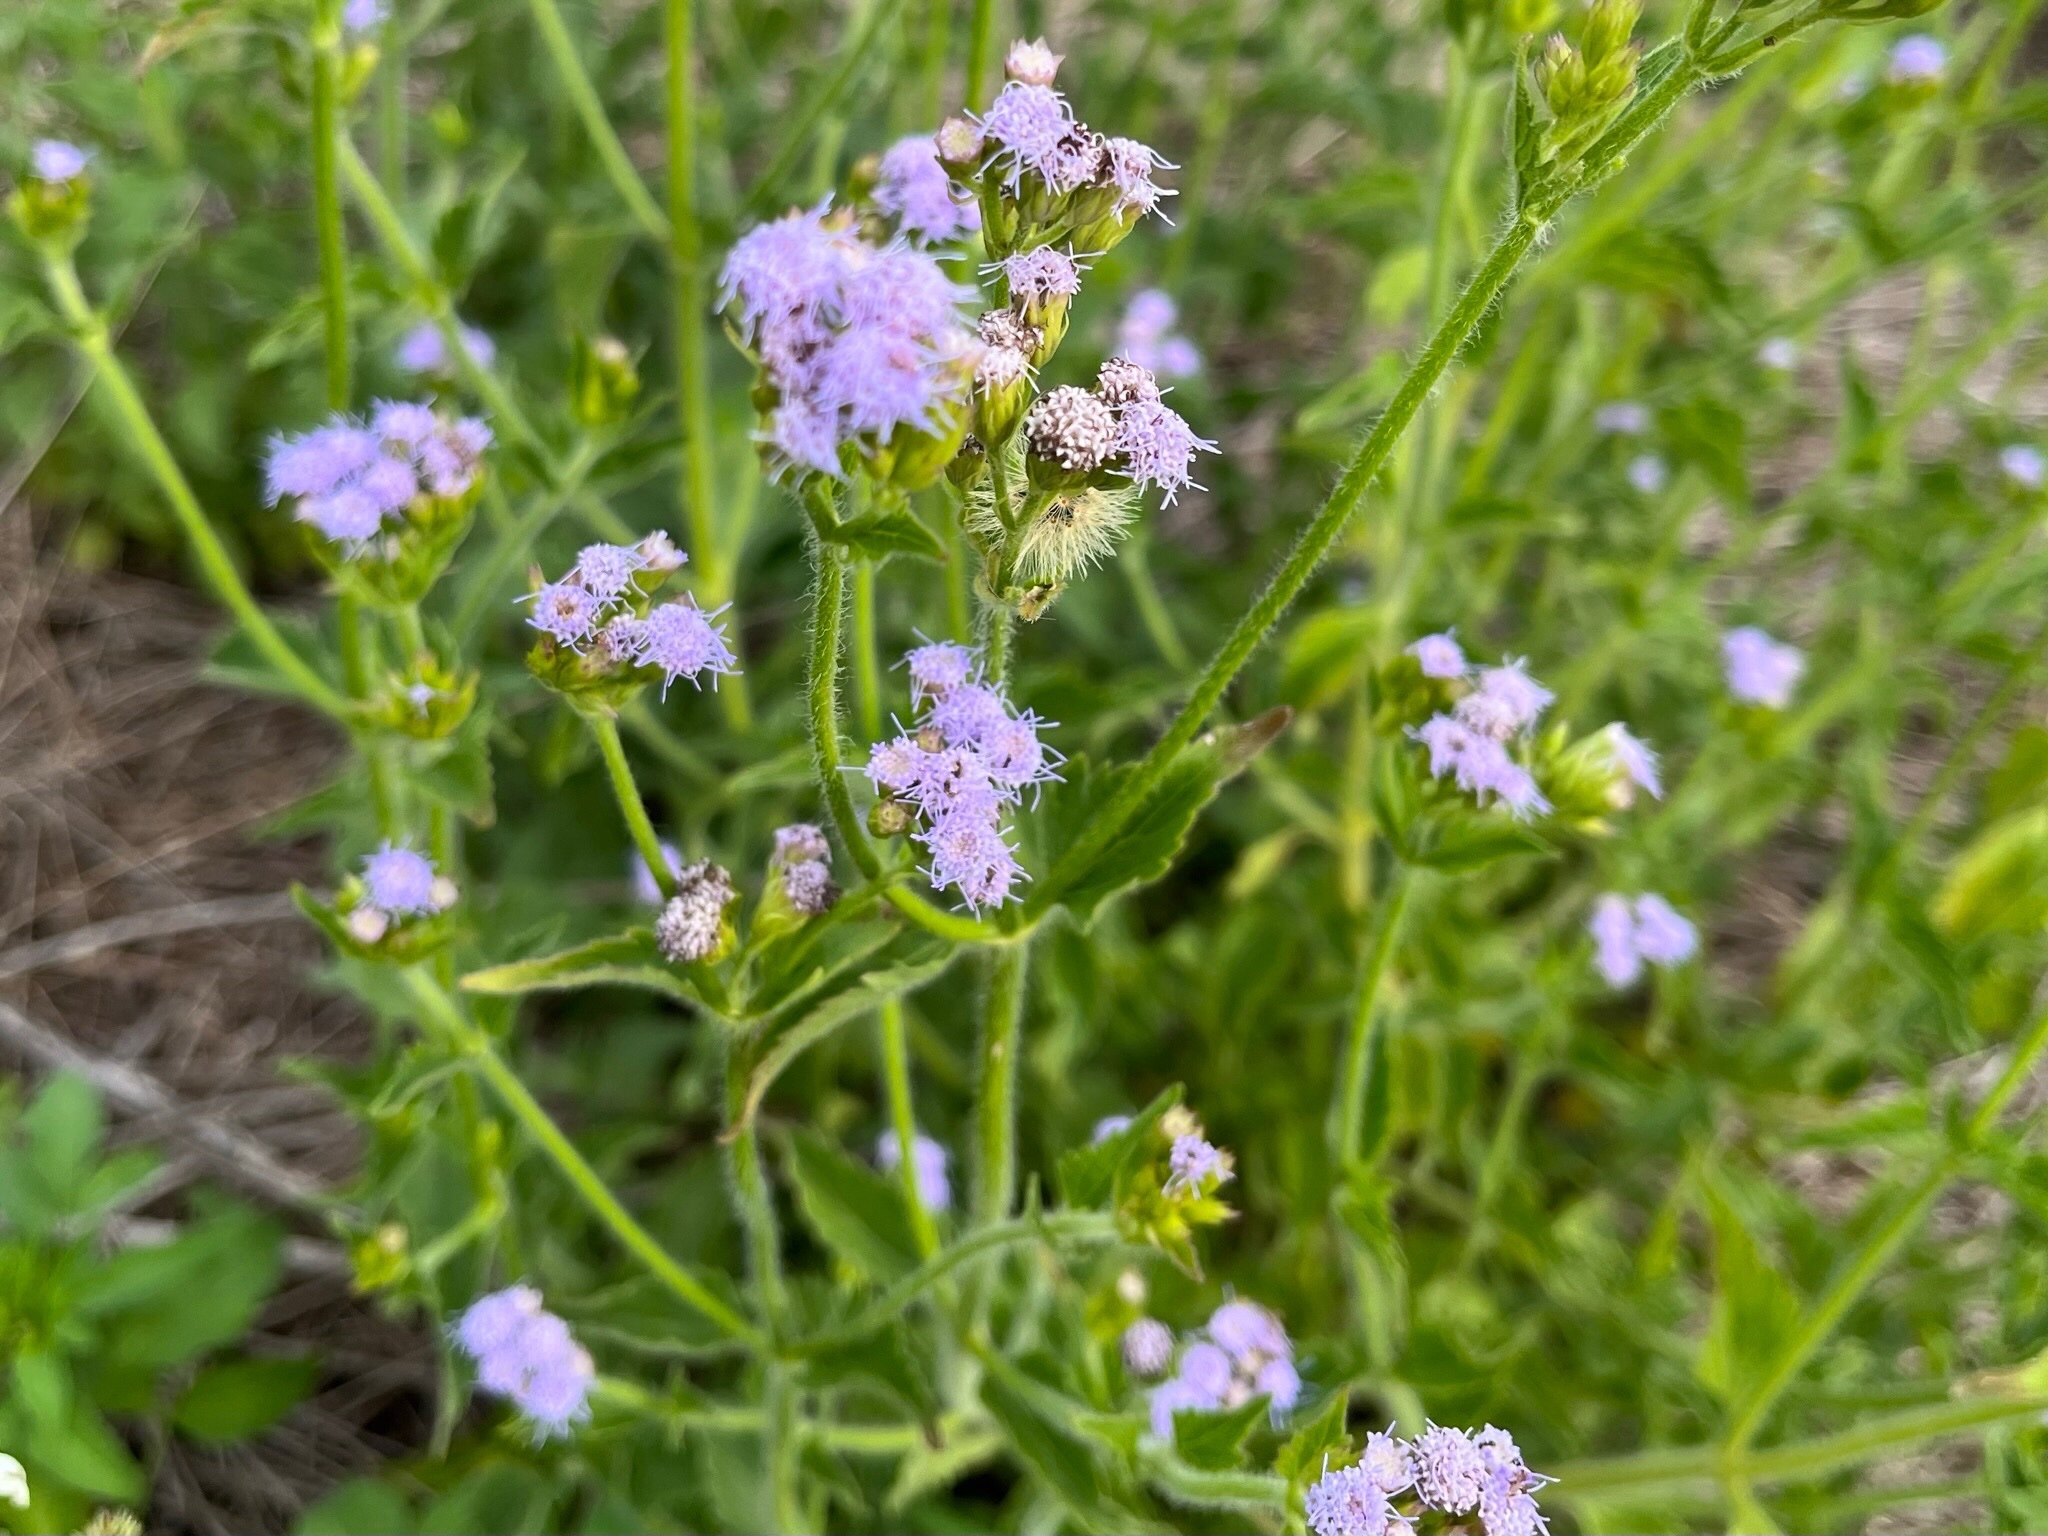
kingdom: Plantae
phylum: Tracheophyta
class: Magnoliopsida
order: Asterales
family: Asteraceae
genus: Praxelis
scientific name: Praxelis clematidea
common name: Praxelis
